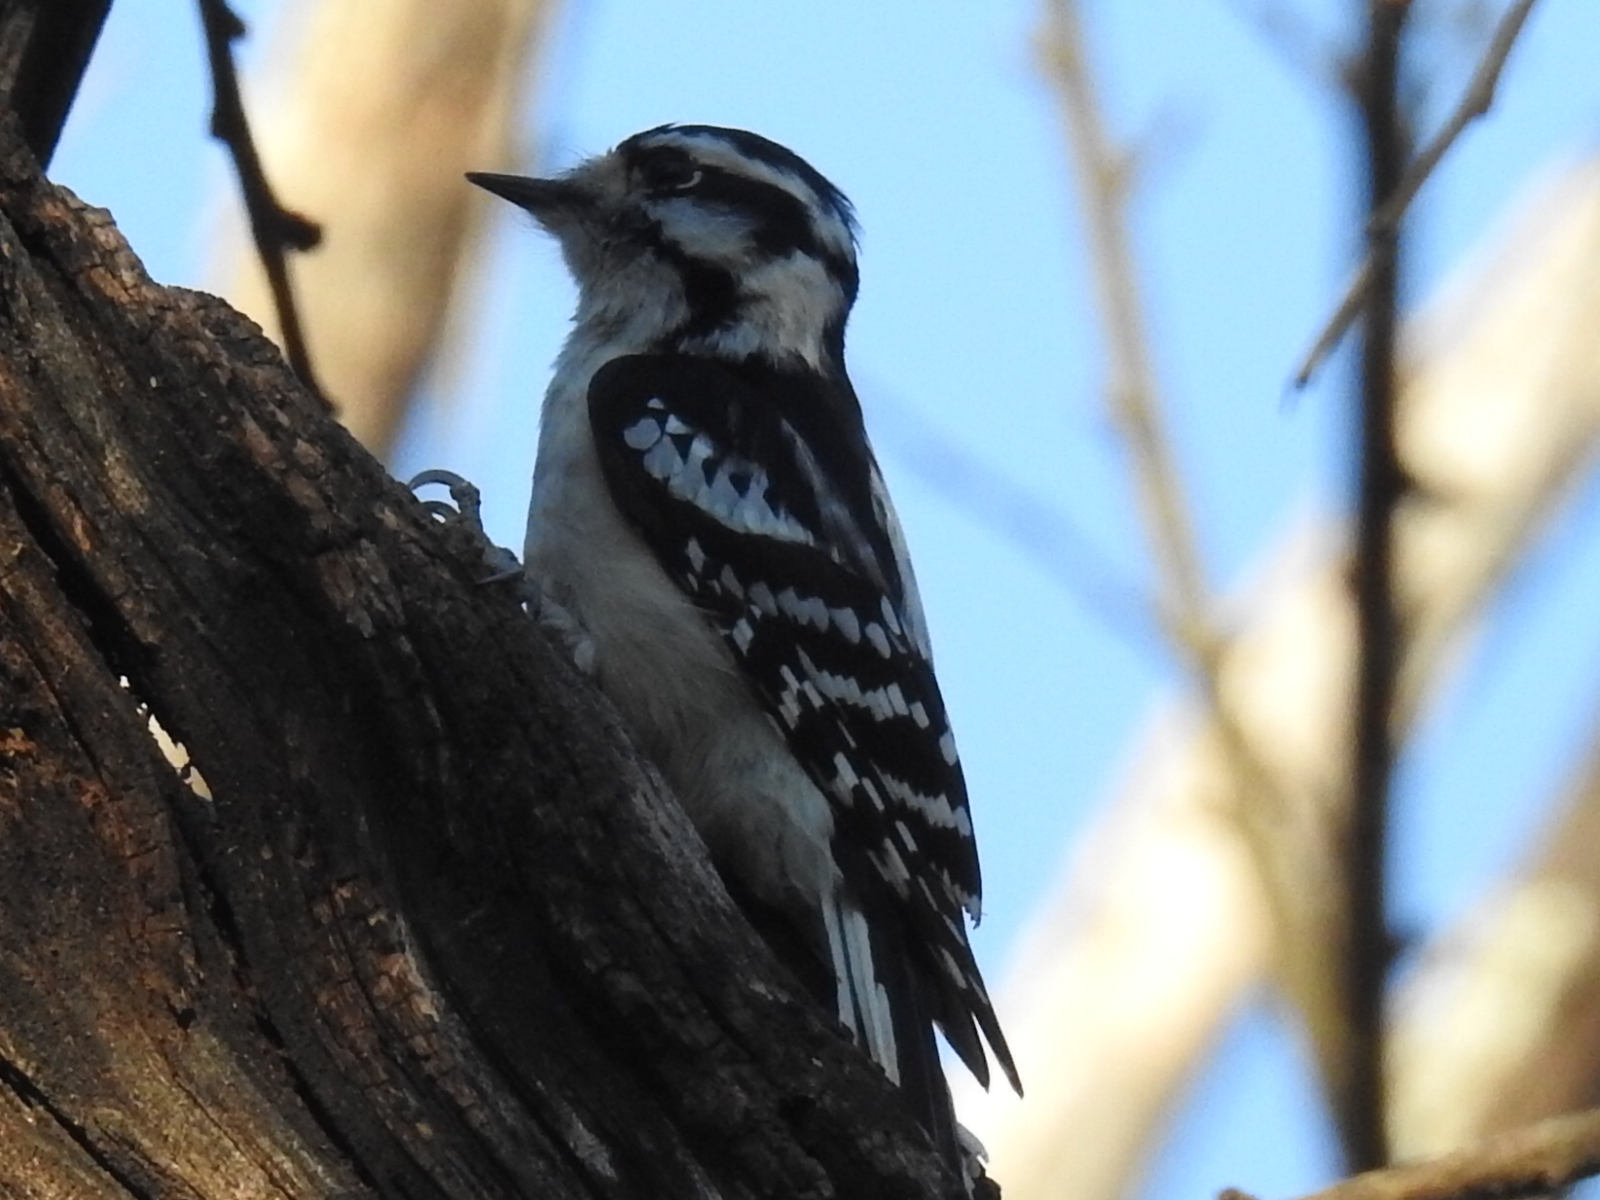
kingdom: Animalia
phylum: Chordata
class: Aves
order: Piciformes
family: Picidae
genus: Dryobates
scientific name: Dryobates pubescens
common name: Downy woodpecker
